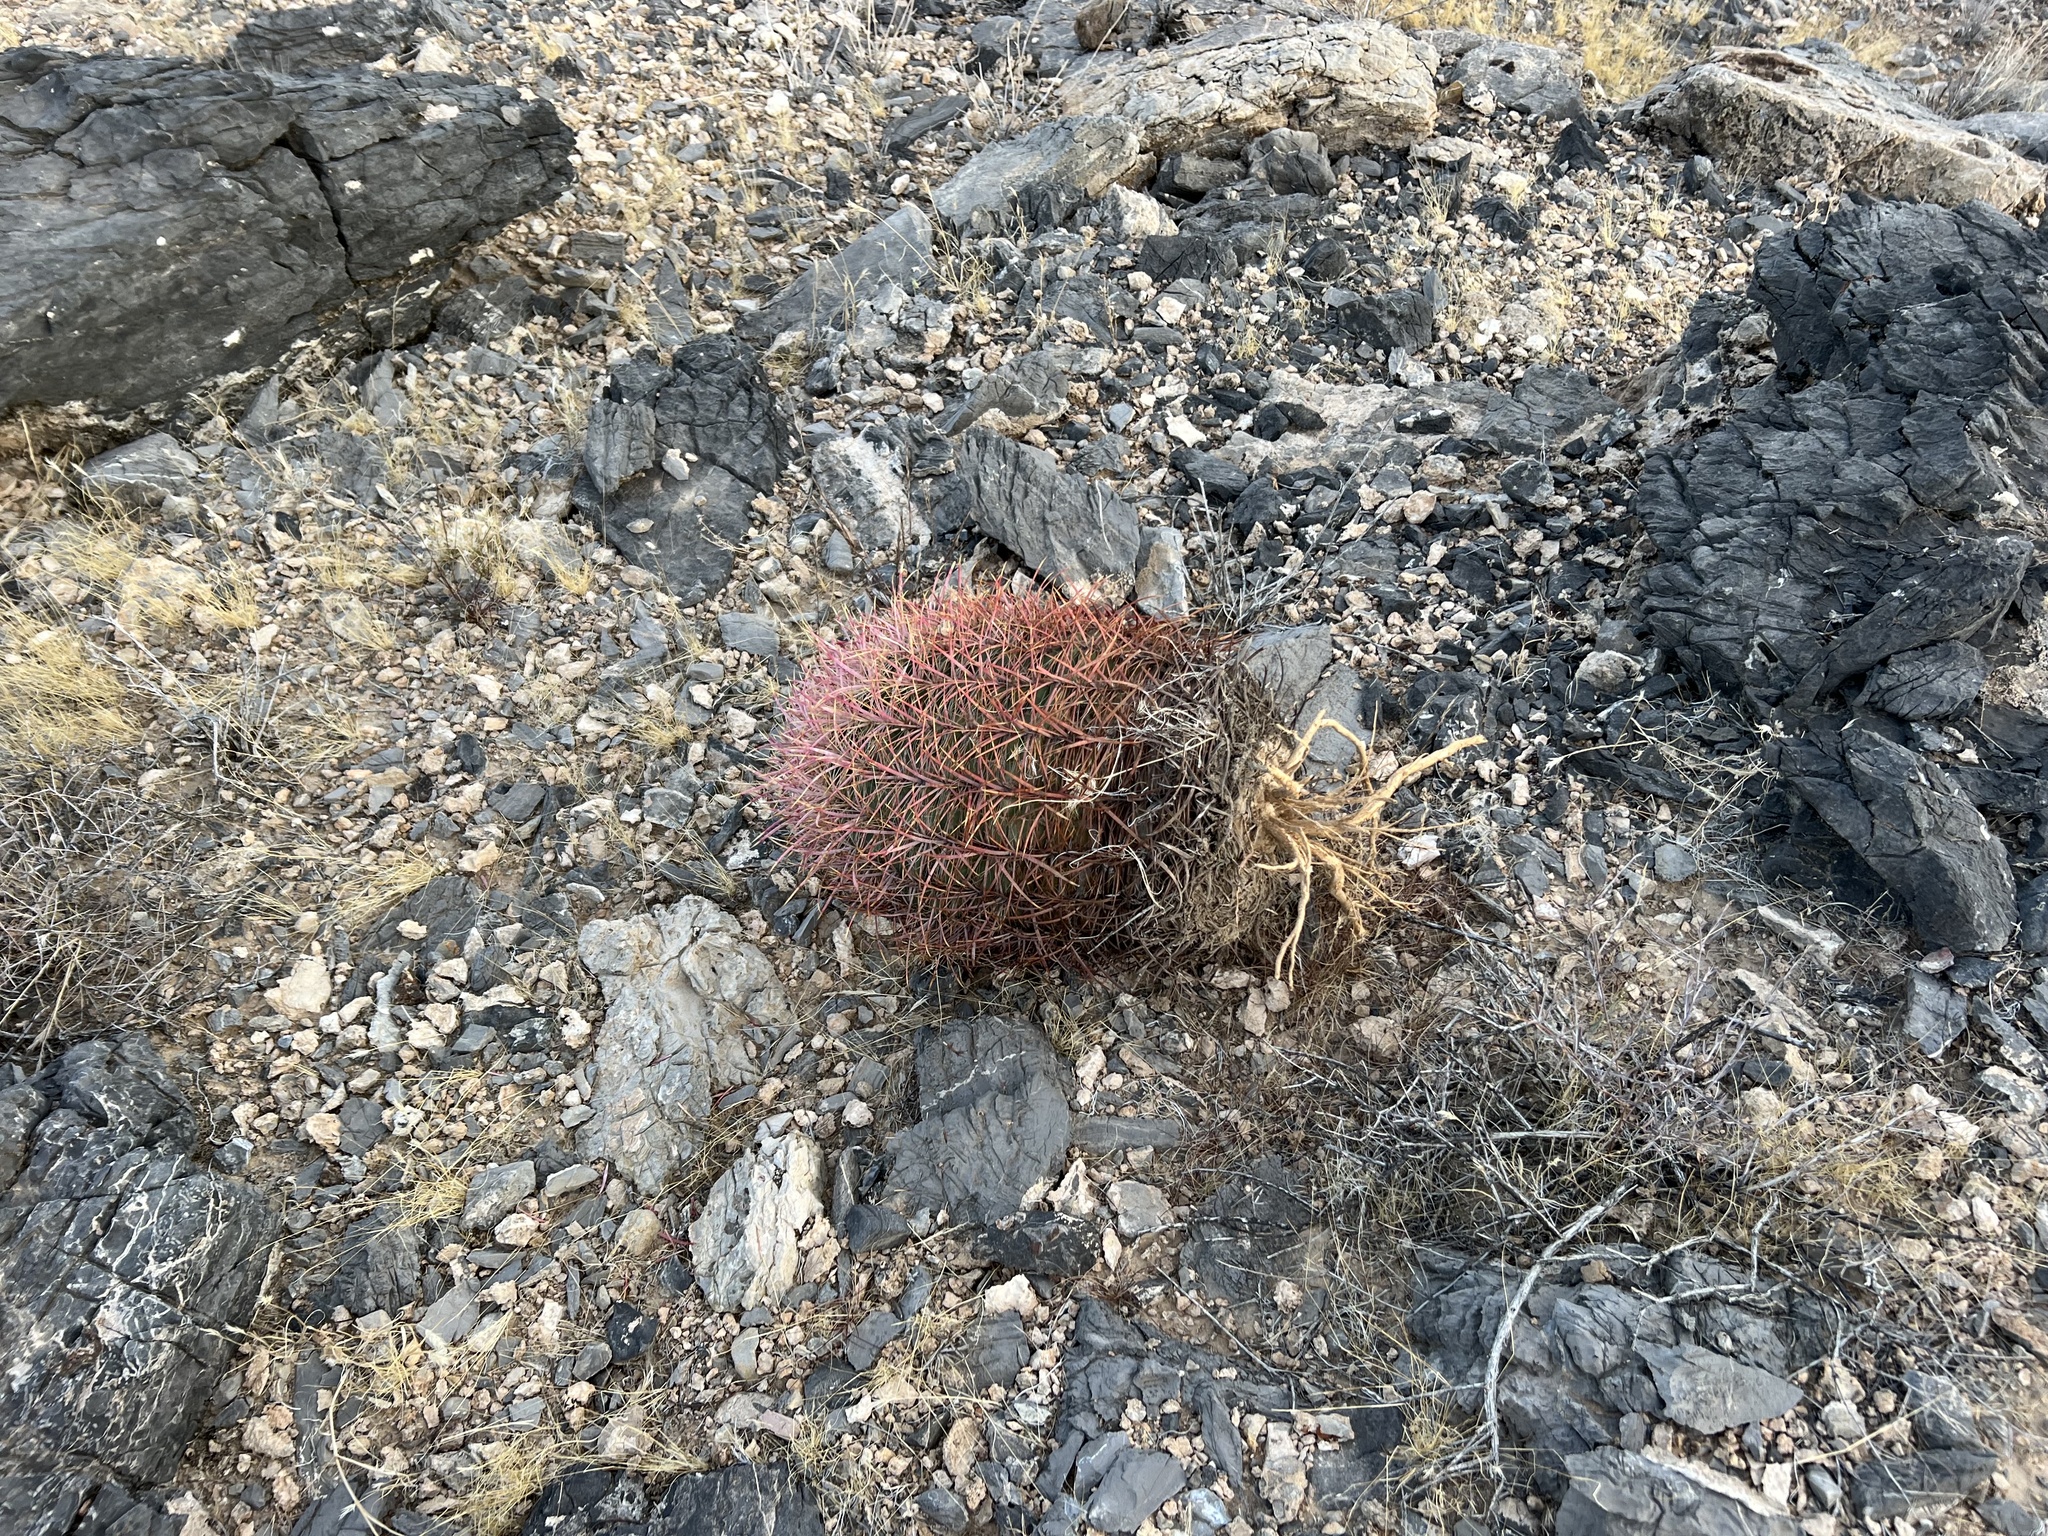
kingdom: Plantae
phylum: Tracheophyta
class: Magnoliopsida
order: Caryophyllales
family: Cactaceae
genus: Ferocactus
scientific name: Ferocactus cylindraceus
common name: California barrel cactus
